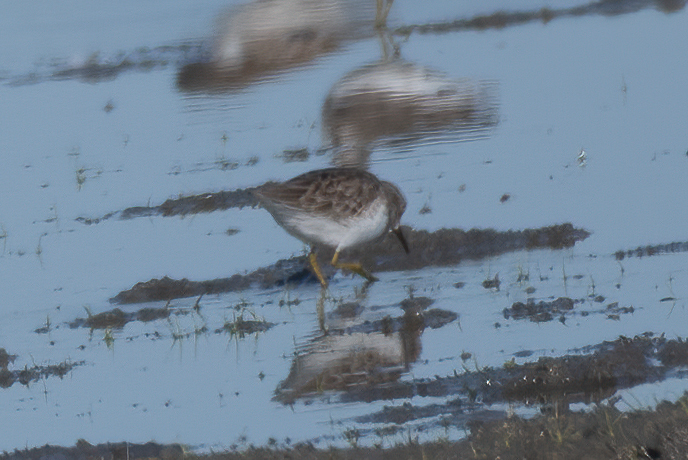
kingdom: Animalia
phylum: Chordata
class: Aves
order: Charadriiformes
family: Scolopacidae
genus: Calidris
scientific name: Calidris minutilla
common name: Least sandpiper
